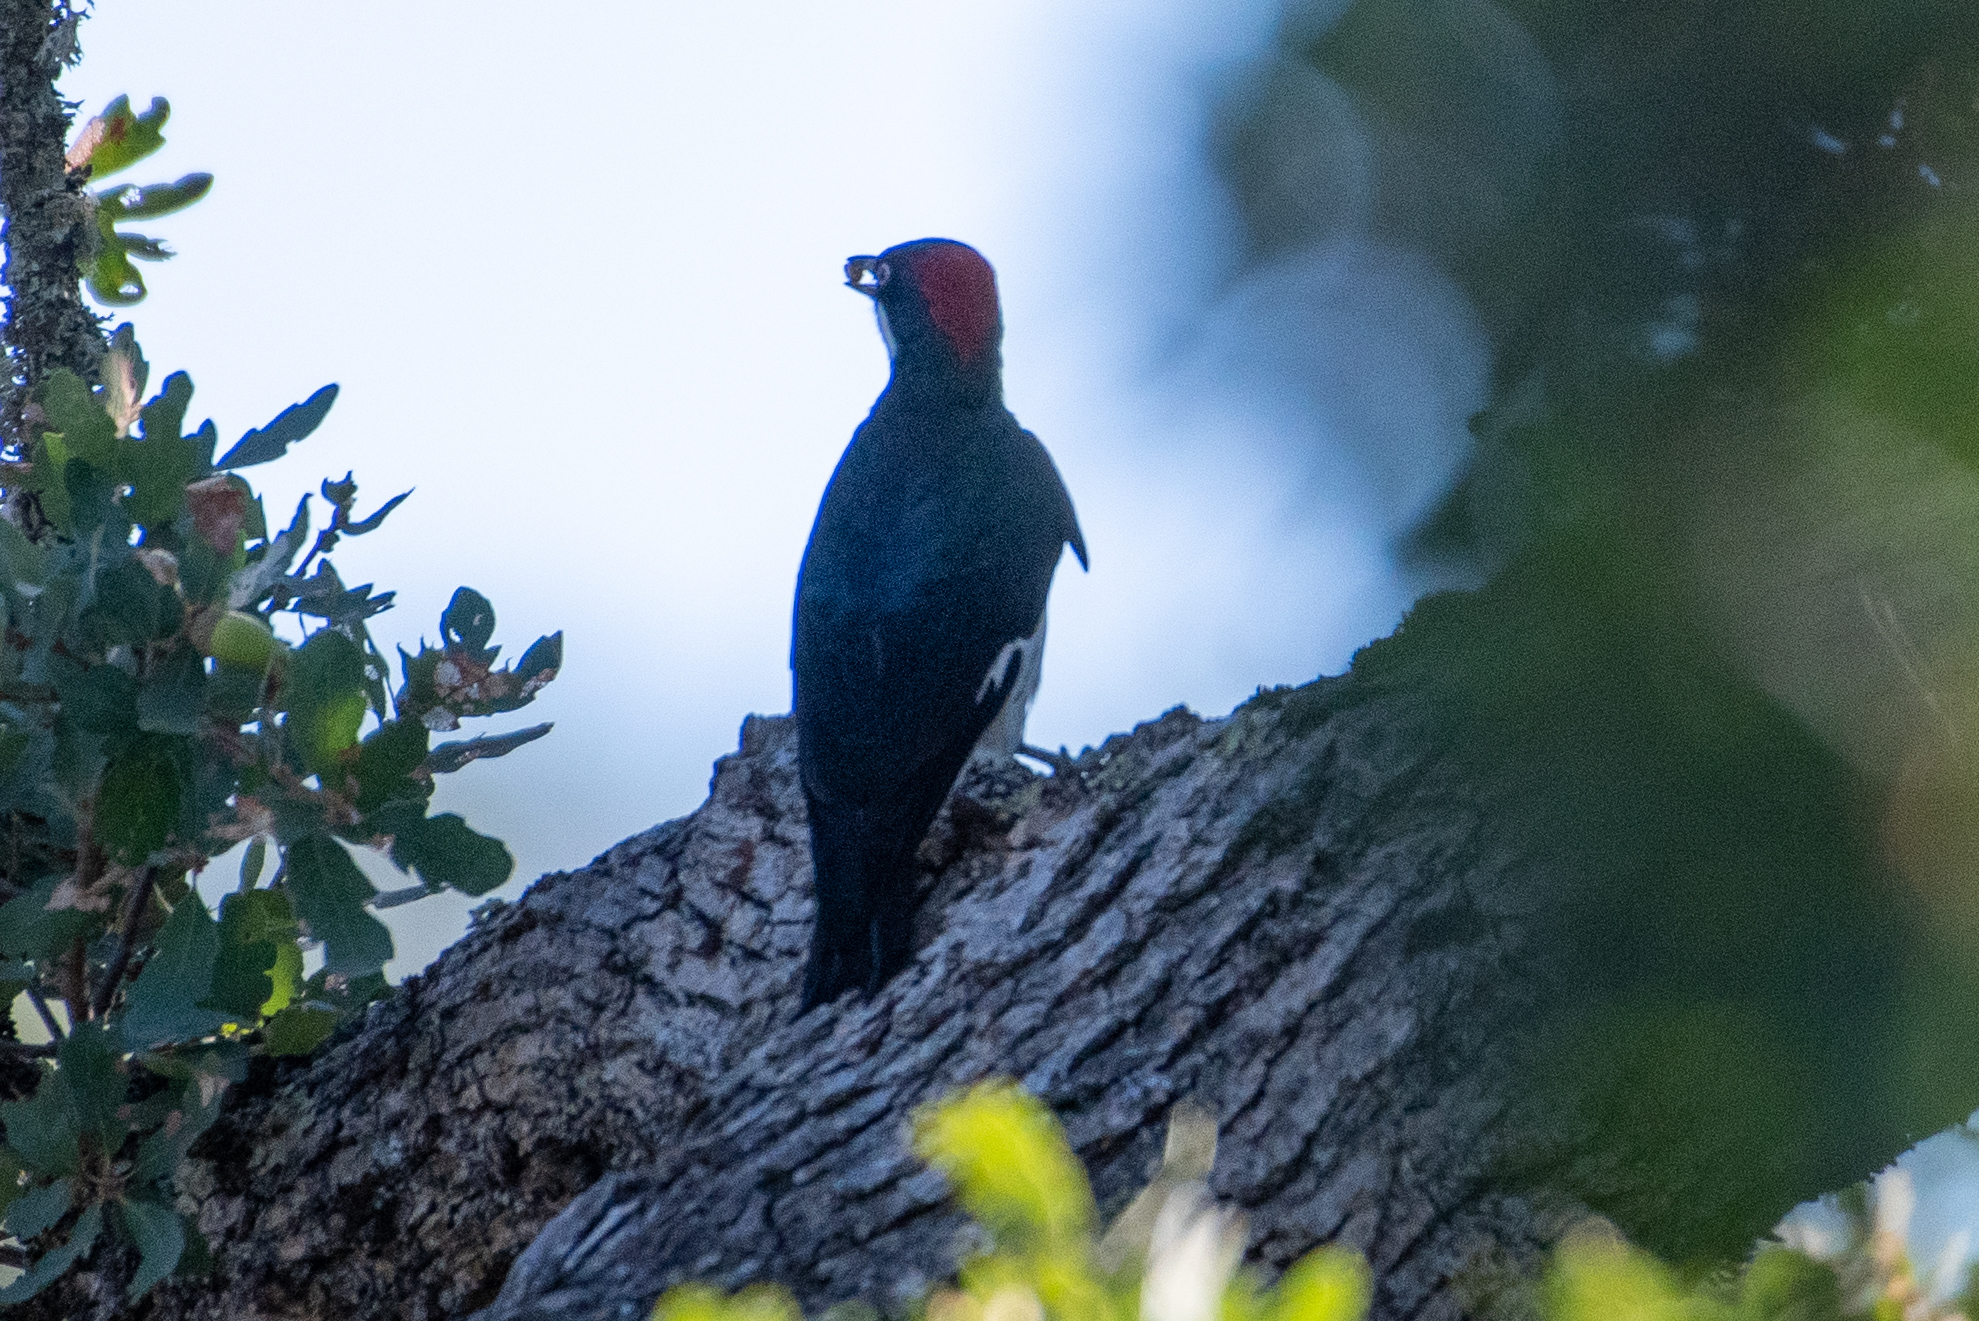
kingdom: Animalia
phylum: Chordata
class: Aves
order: Piciformes
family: Picidae
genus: Melanerpes
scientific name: Melanerpes formicivorus
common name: Acorn woodpecker
